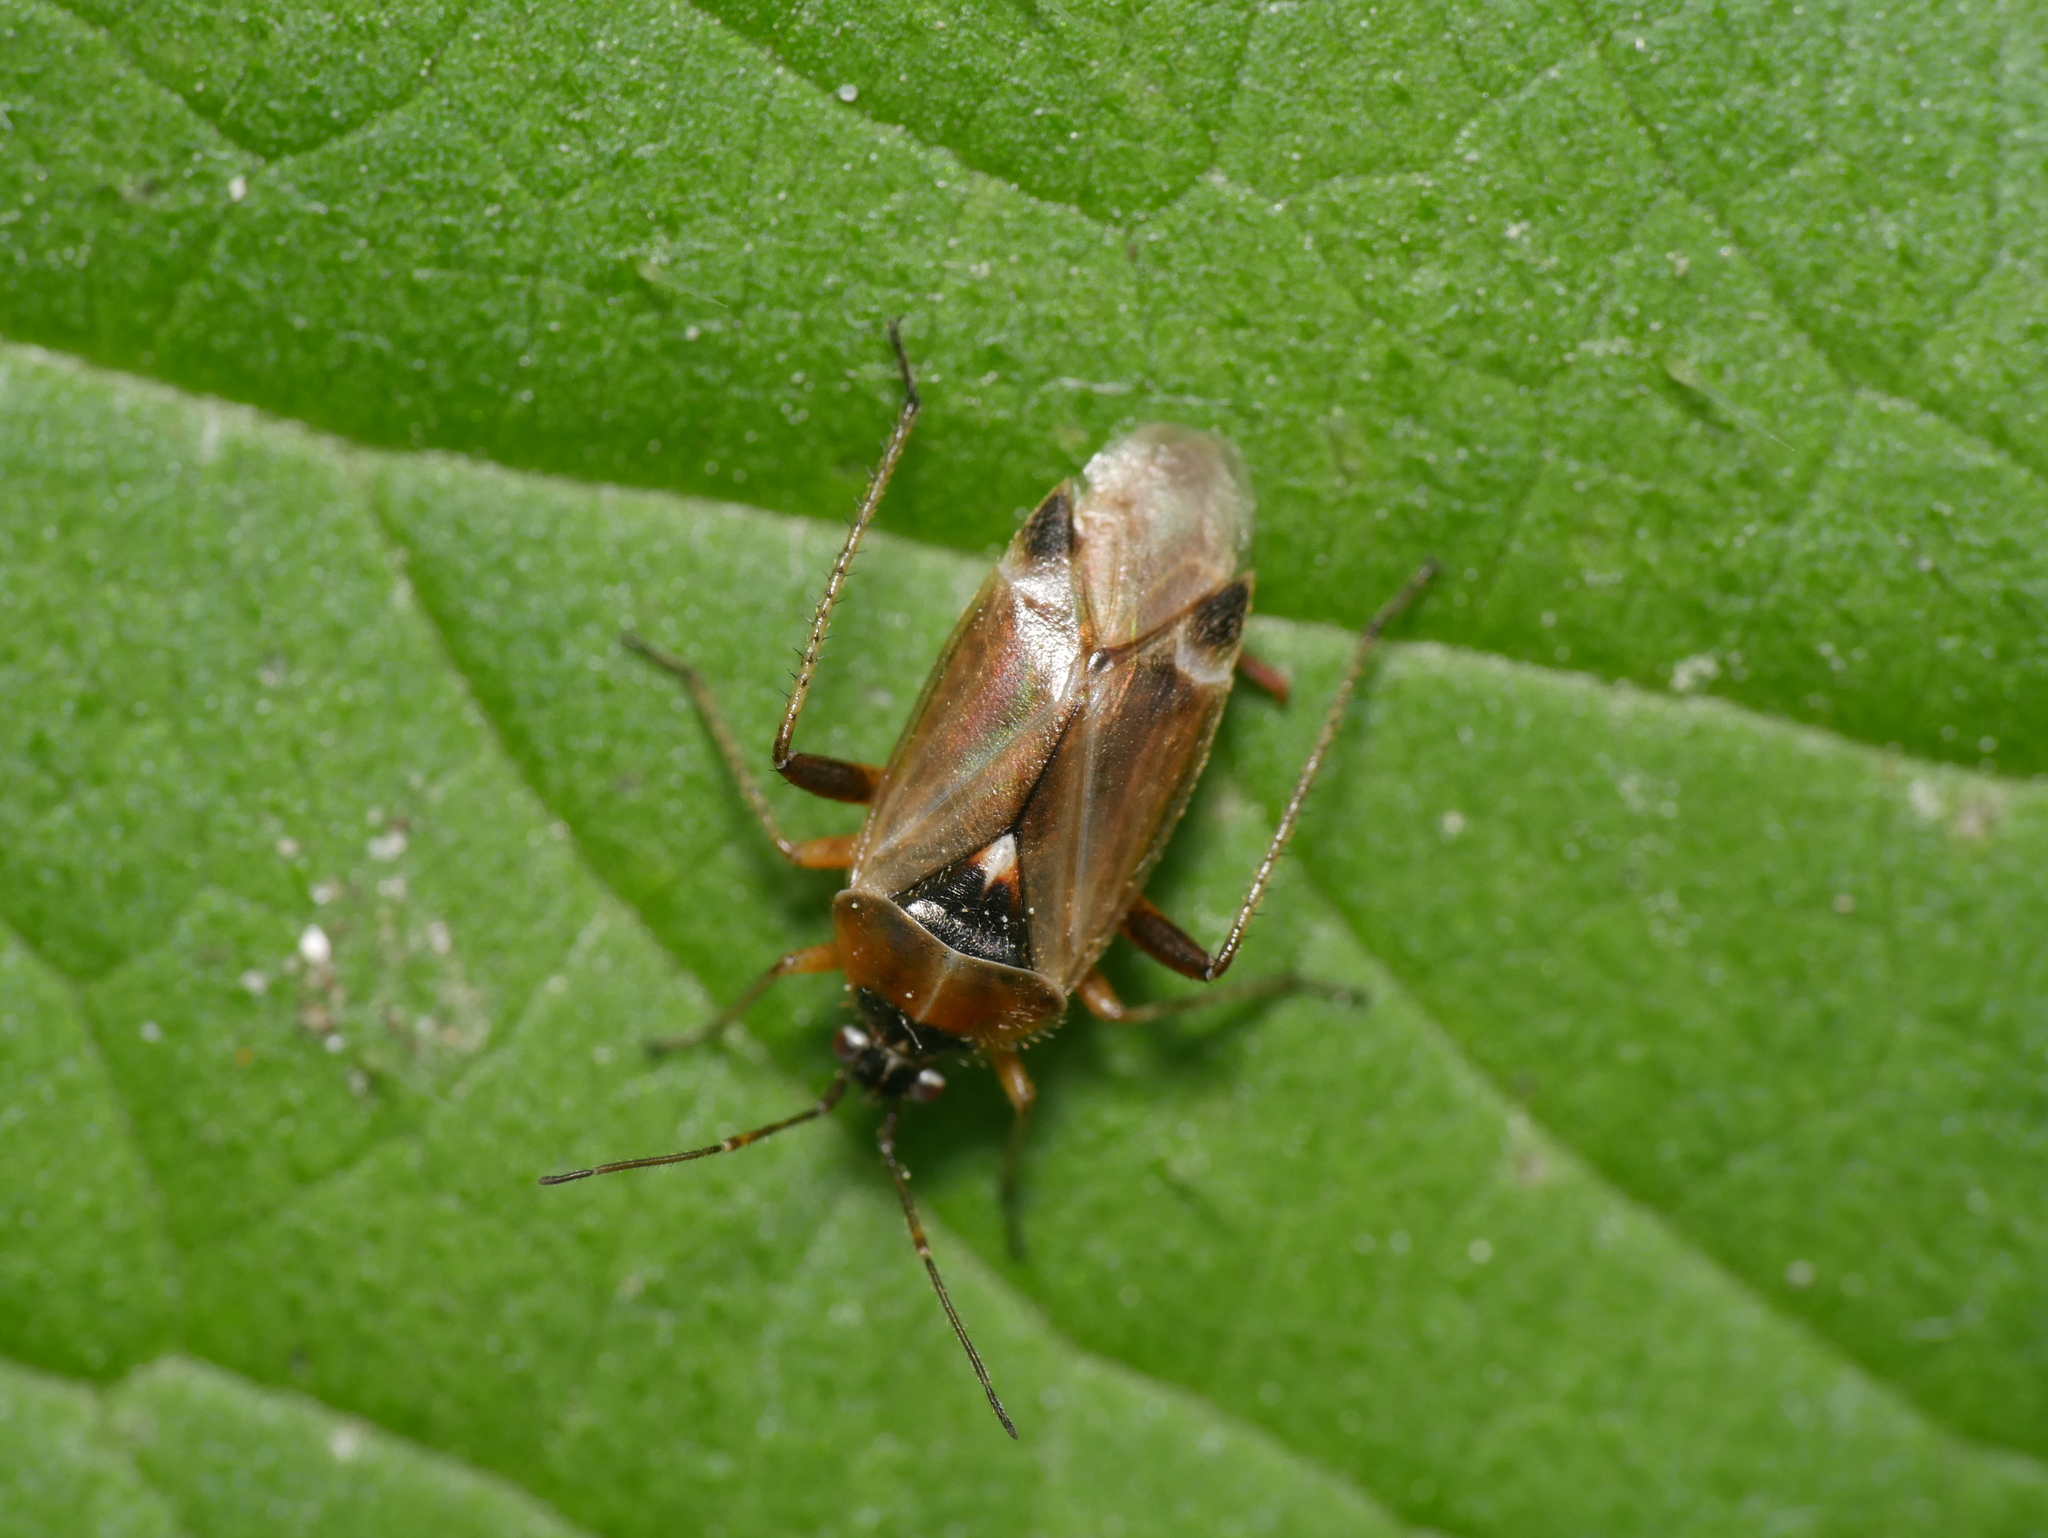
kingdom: Animalia
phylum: Arthropoda
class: Insecta
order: Hemiptera
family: Miridae
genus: Harpocera
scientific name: Harpocera thoracica
